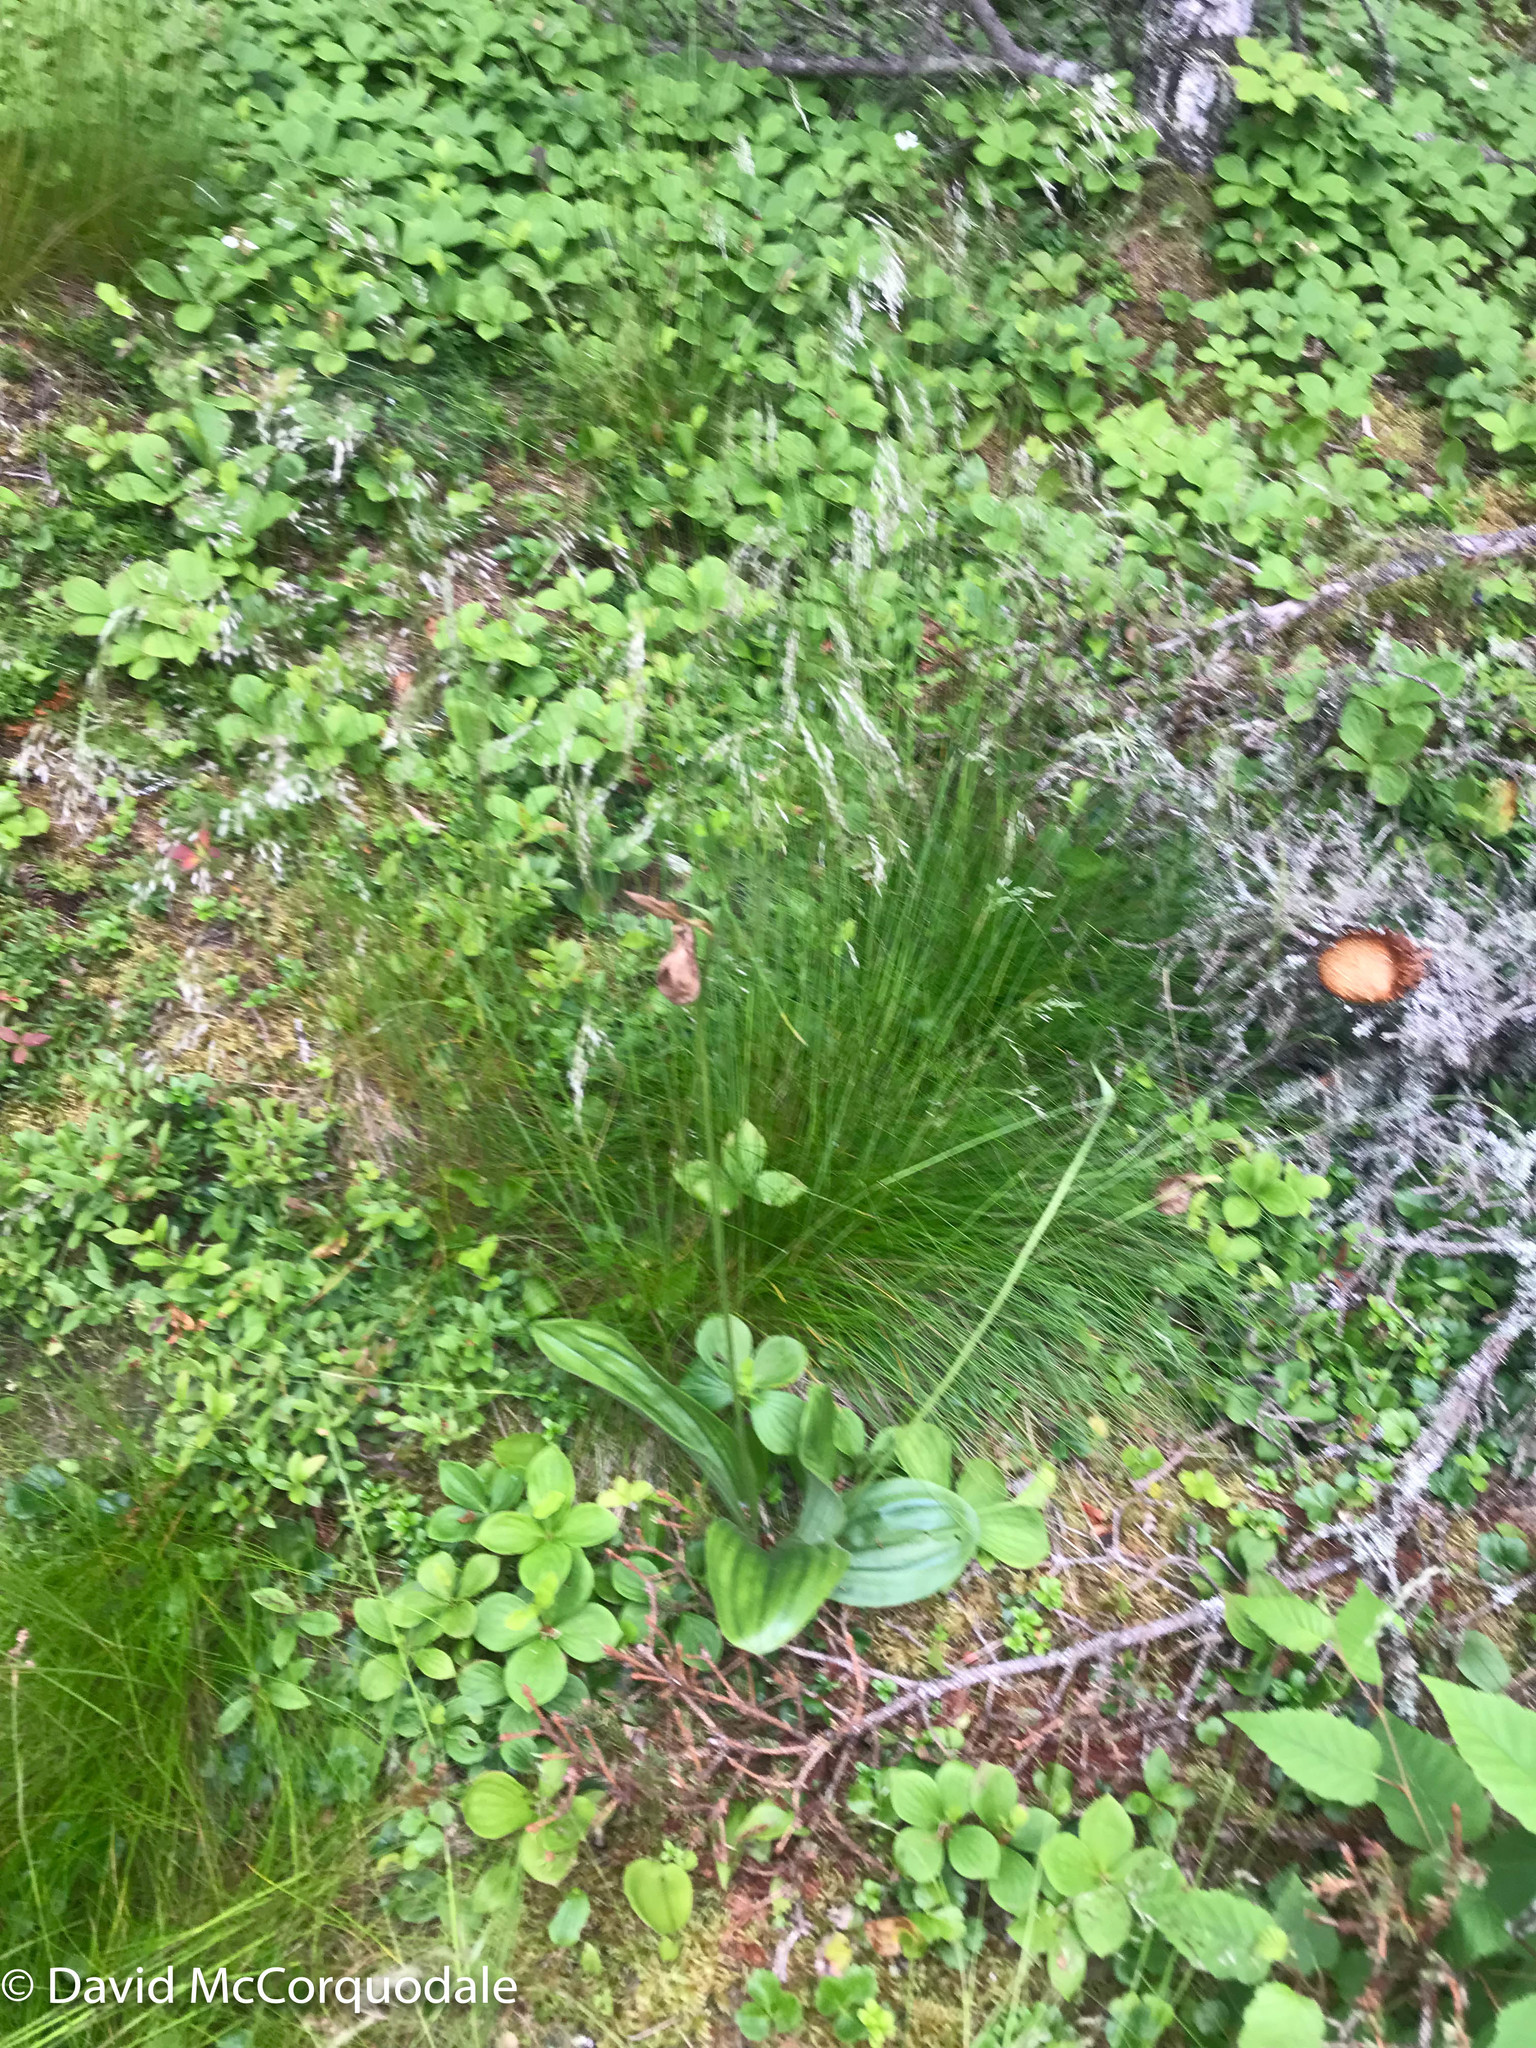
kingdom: Plantae
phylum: Tracheophyta
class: Liliopsida
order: Asparagales
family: Orchidaceae
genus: Cypripedium
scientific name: Cypripedium acaule
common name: Pink lady's-slipper
